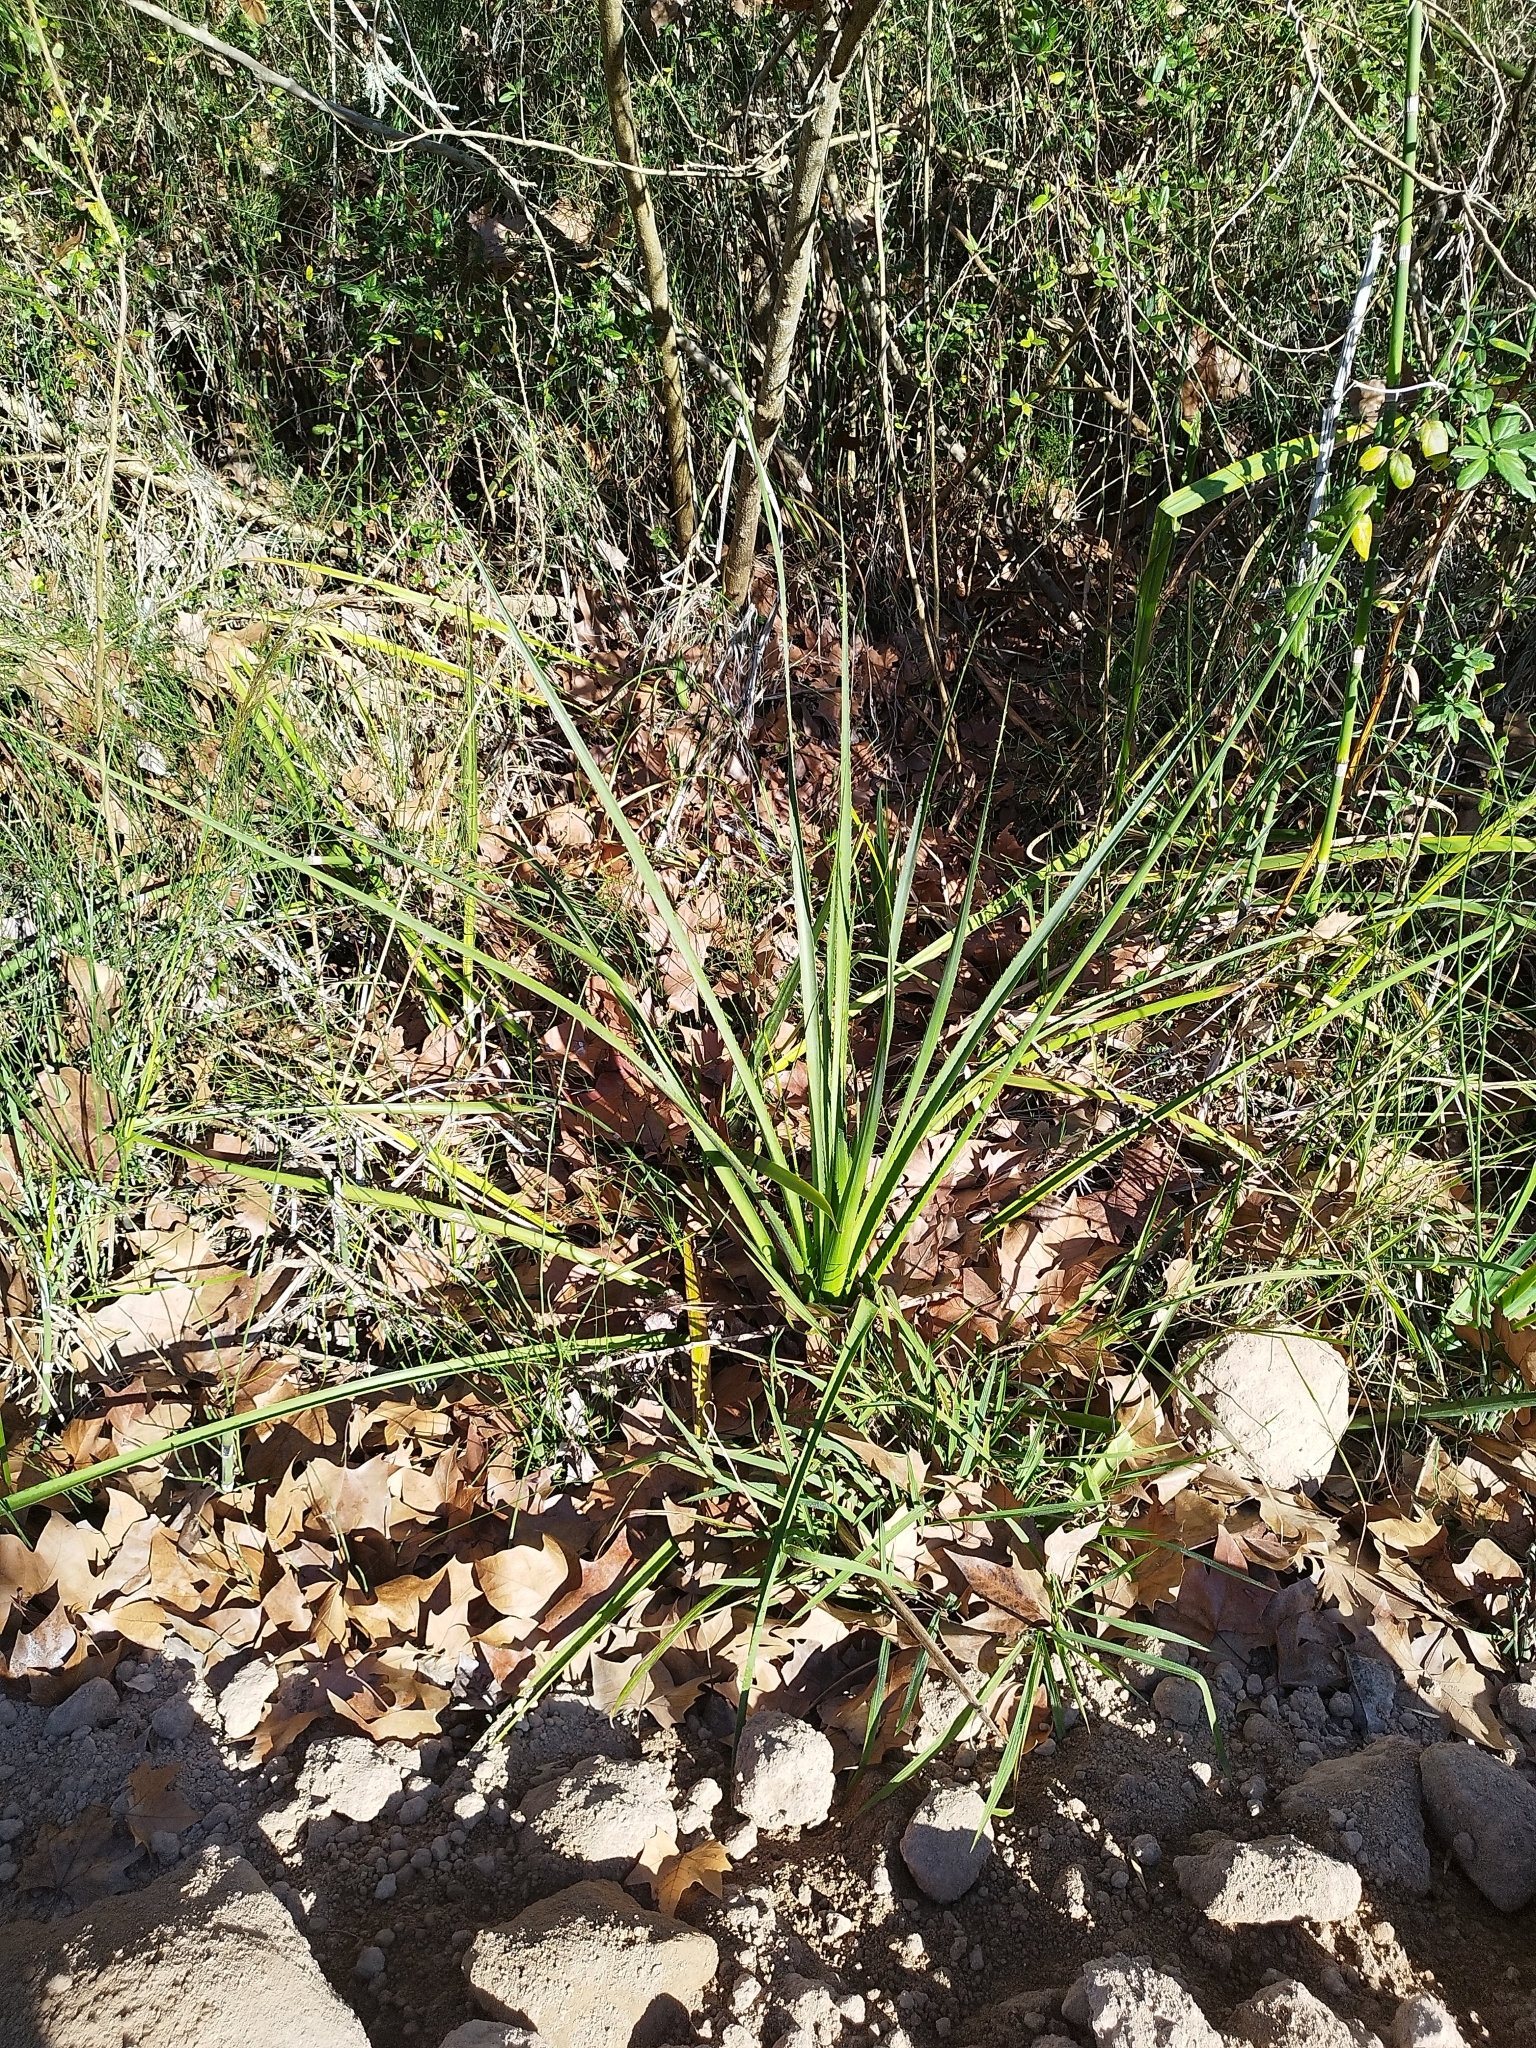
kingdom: Plantae
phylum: Tracheophyta
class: Magnoliopsida
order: Apiales
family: Apiaceae
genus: Eryngium
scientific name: Eryngium pandanifolium
